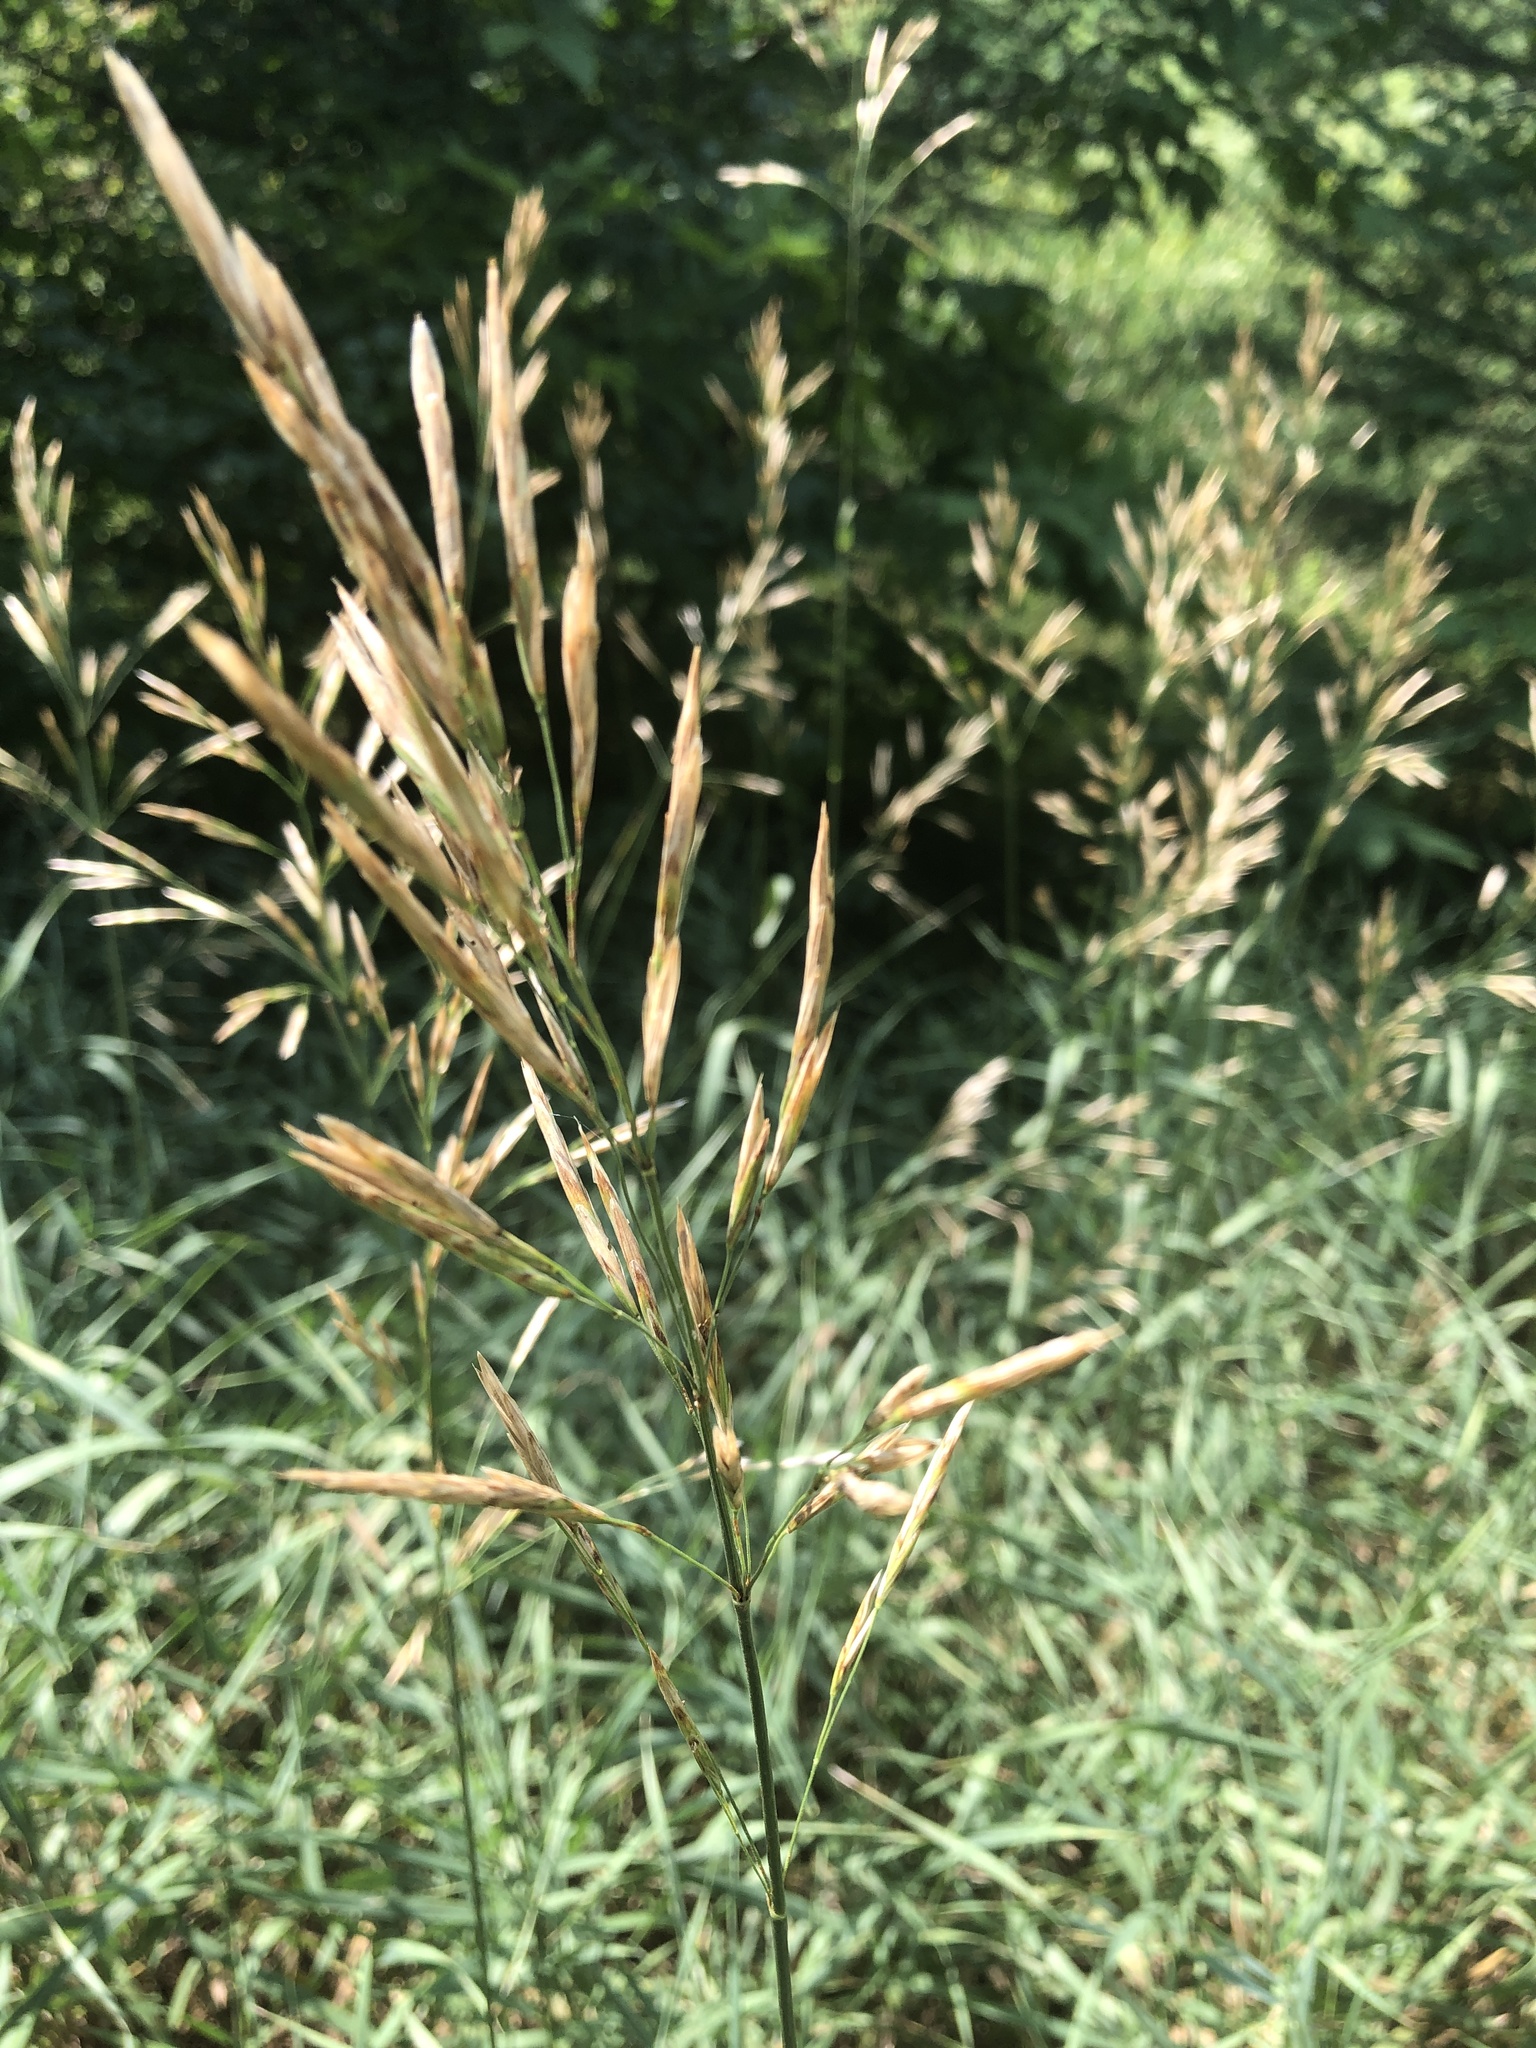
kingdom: Plantae
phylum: Tracheophyta
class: Liliopsida
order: Poales
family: Poaceae
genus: Bromus
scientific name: Bromus inermis
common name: Smooth brome
